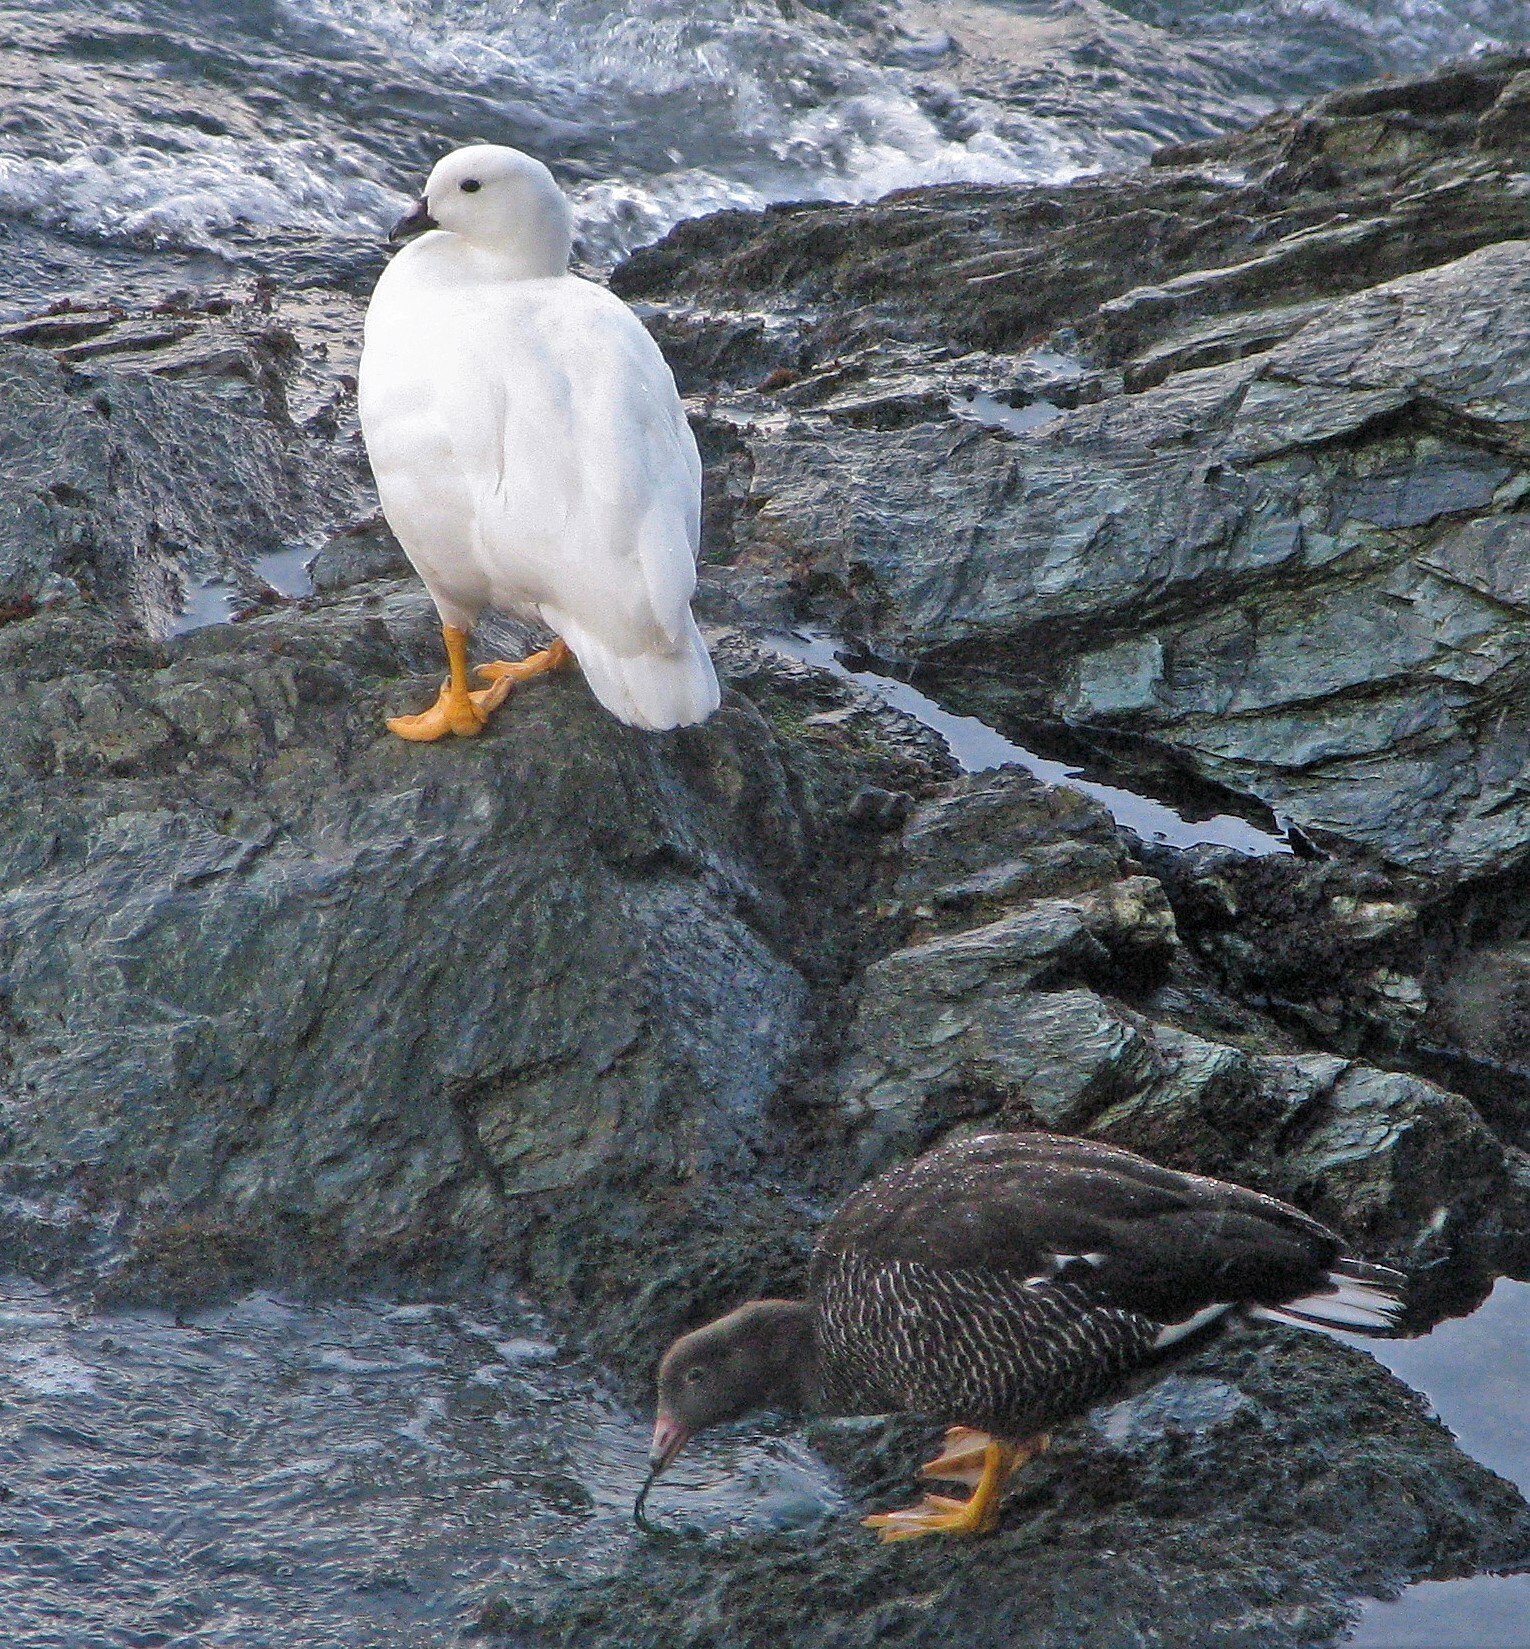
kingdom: Animalia
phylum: Chordata
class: Aves
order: Anseriformes
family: Anatidae
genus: Chloephaga
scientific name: Chloephaga hybrida
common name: Kelp goose
